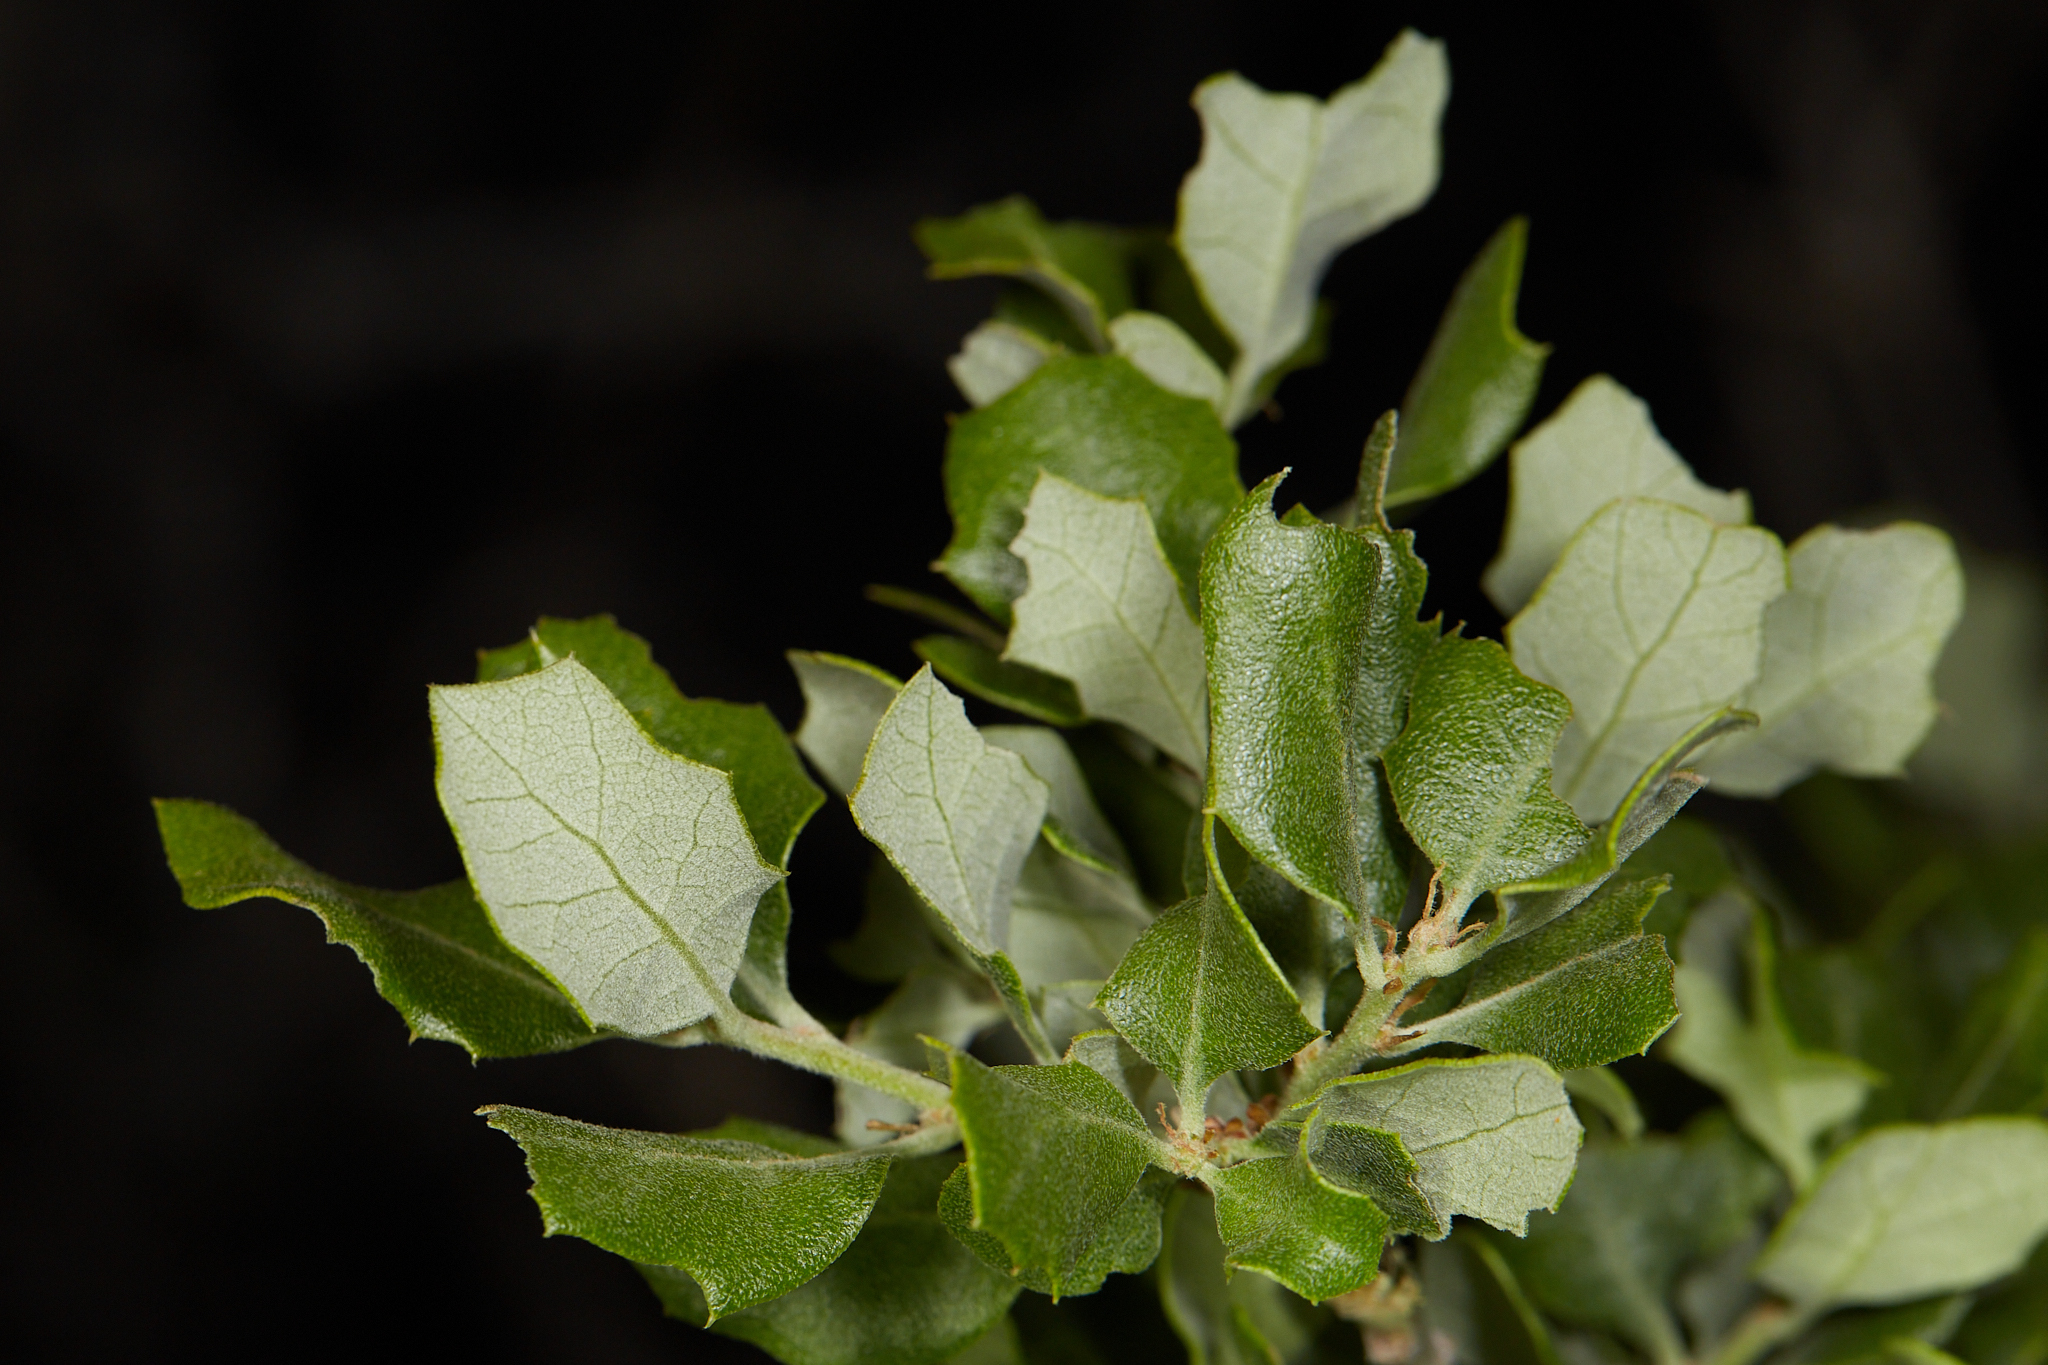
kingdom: Plantae
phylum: Tracheophyta
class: Magnoliopsida
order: Fagales
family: Fagaceae
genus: Quercus
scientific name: Quercus cornelius-mulleri
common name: Muller oak
